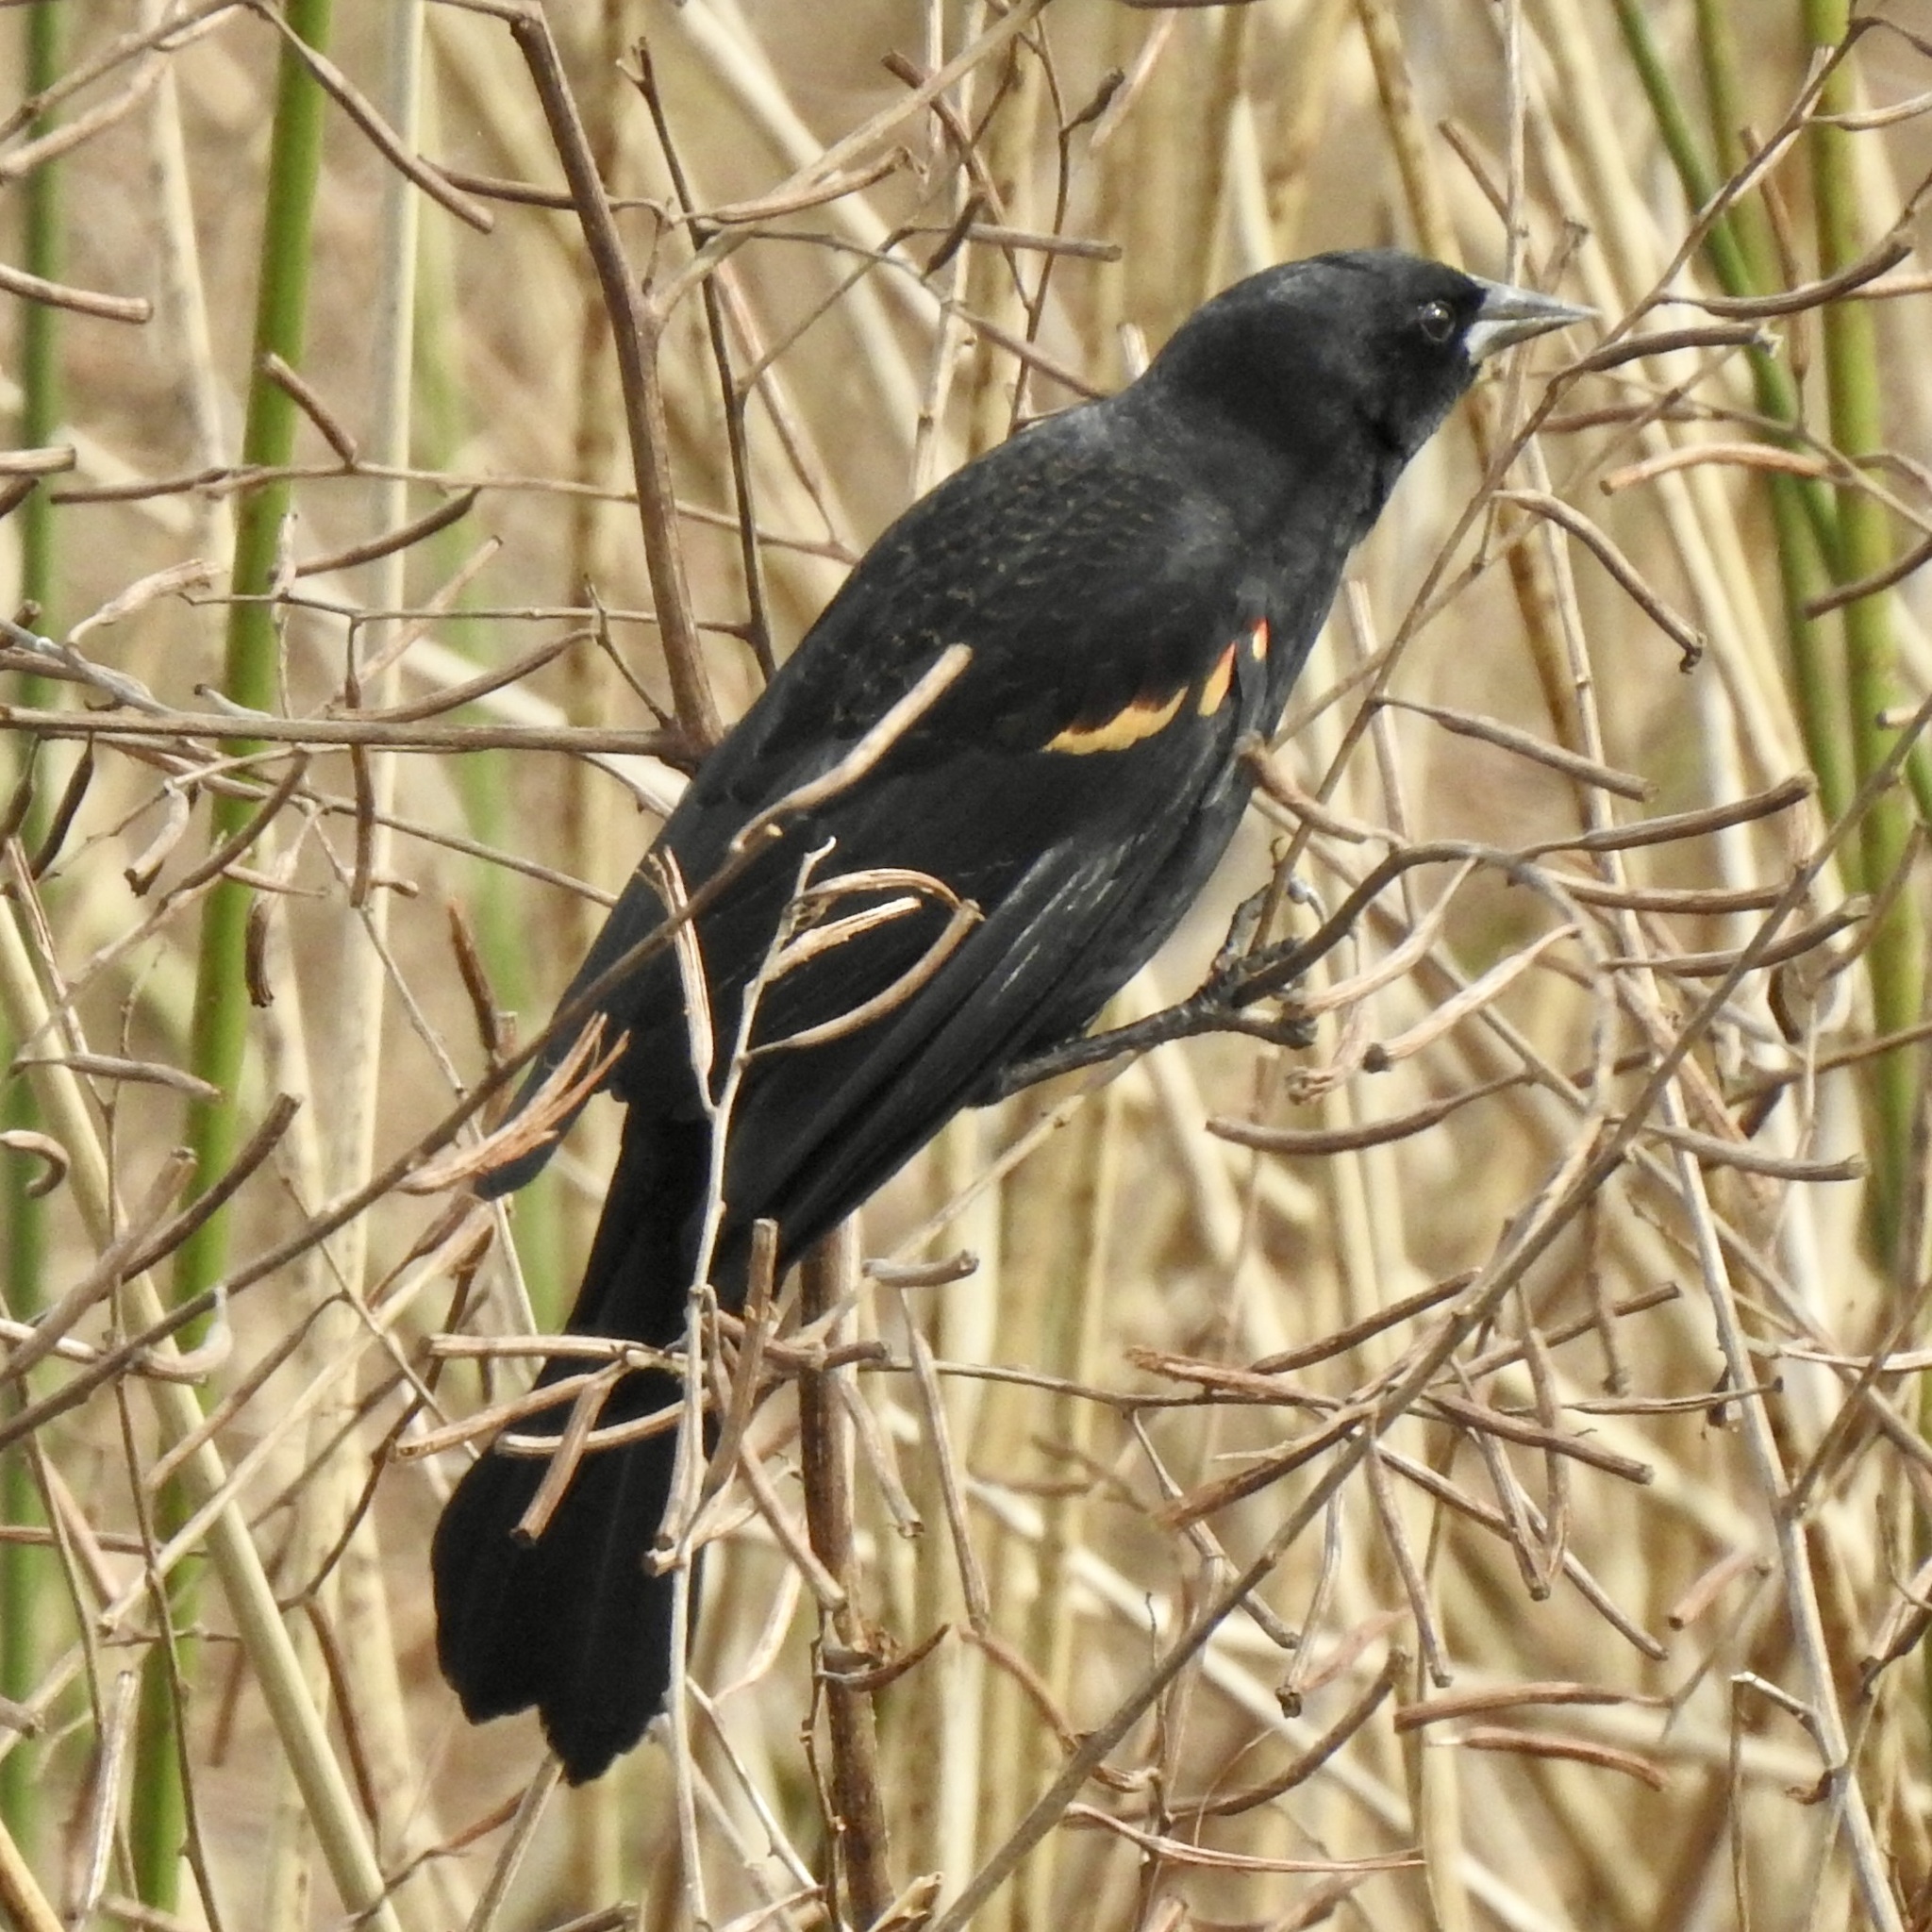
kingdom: Animalia
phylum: Chordata
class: Aves
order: Passeriformes
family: Icteridae
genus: Agelaius
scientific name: Agelaius phoeniceus
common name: Red-winged blackbird
